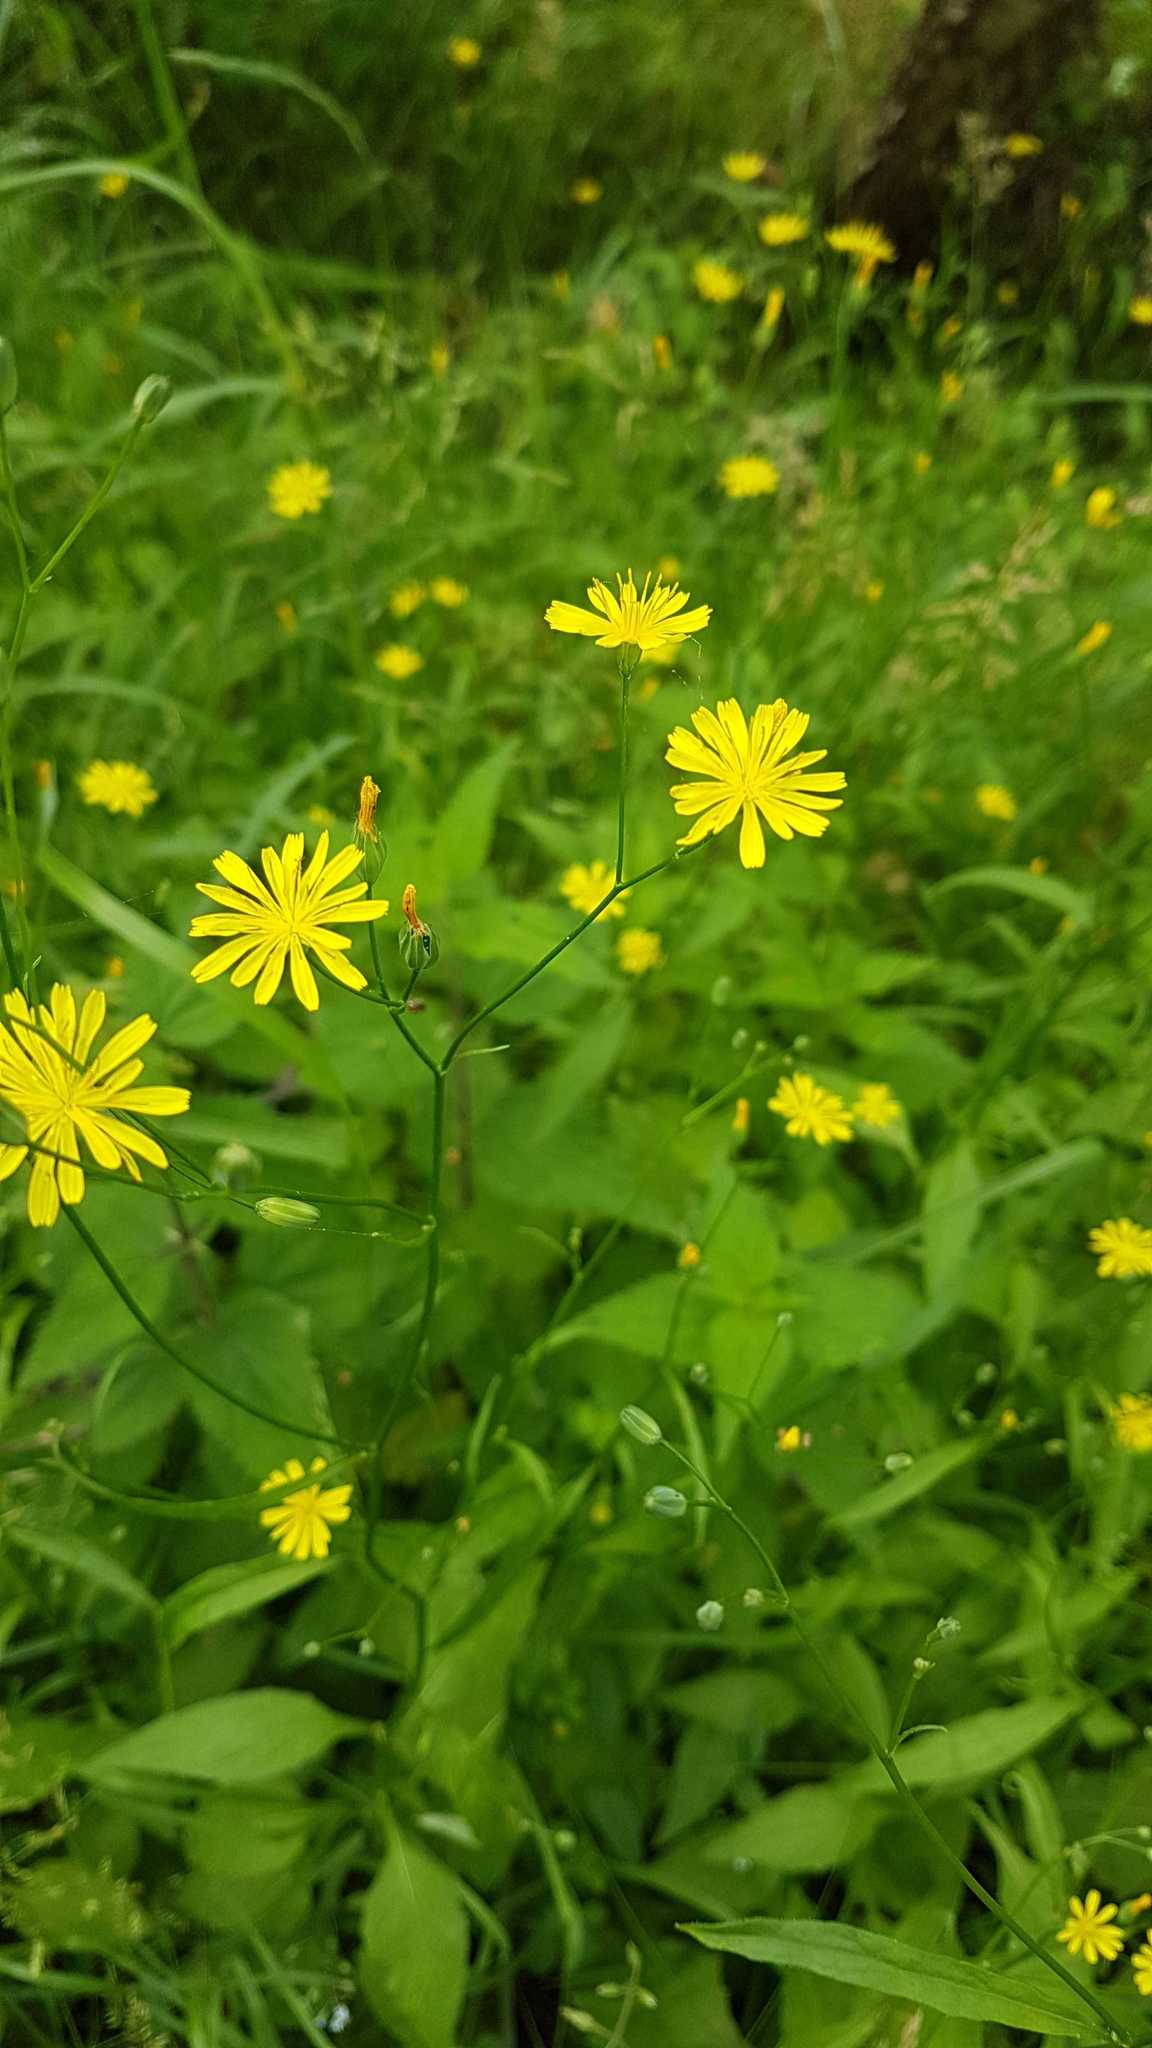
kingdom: Plantae
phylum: Tracheophyta
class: Magnoliopsida
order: Asterales
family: Asteraceae
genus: Lapsana
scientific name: Lapsana communis
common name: Nipplewort
